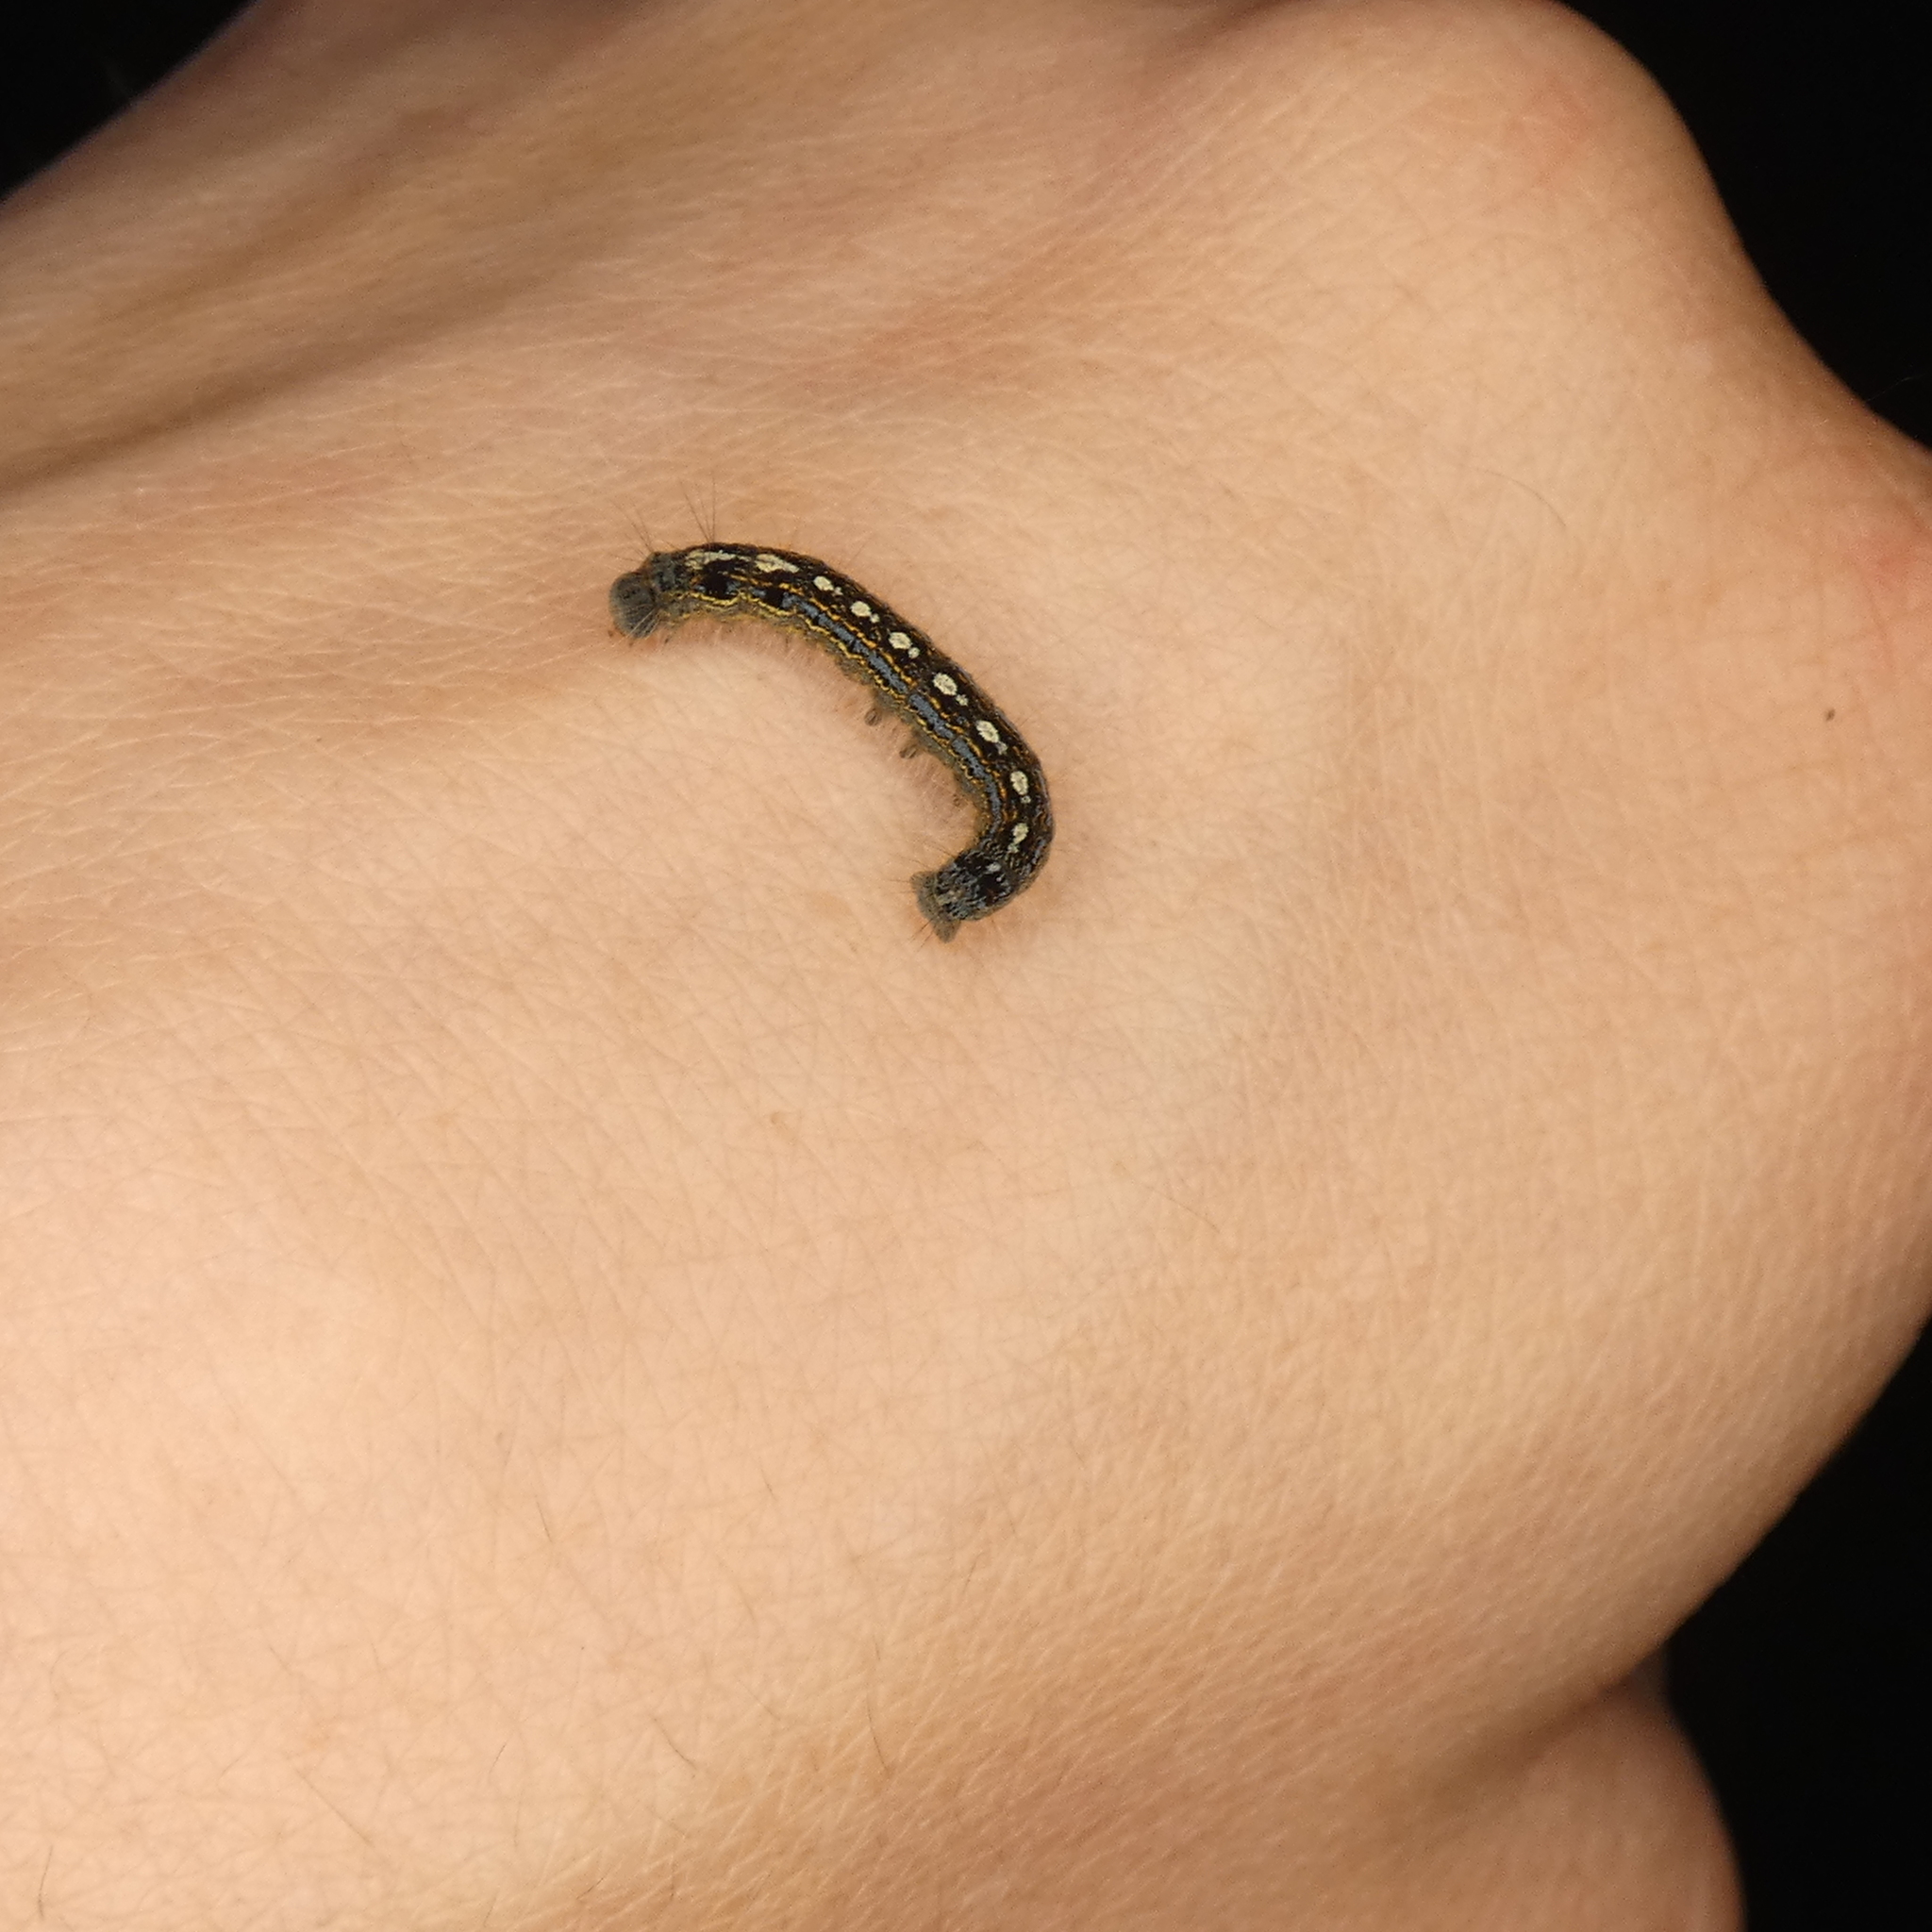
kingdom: Animalia
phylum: Arthropoda
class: Insecta
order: Lepidoptera
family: Lasiocampidae
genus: Malacosoma
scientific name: Malacosoma disstria
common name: Forest tent caterpillar
